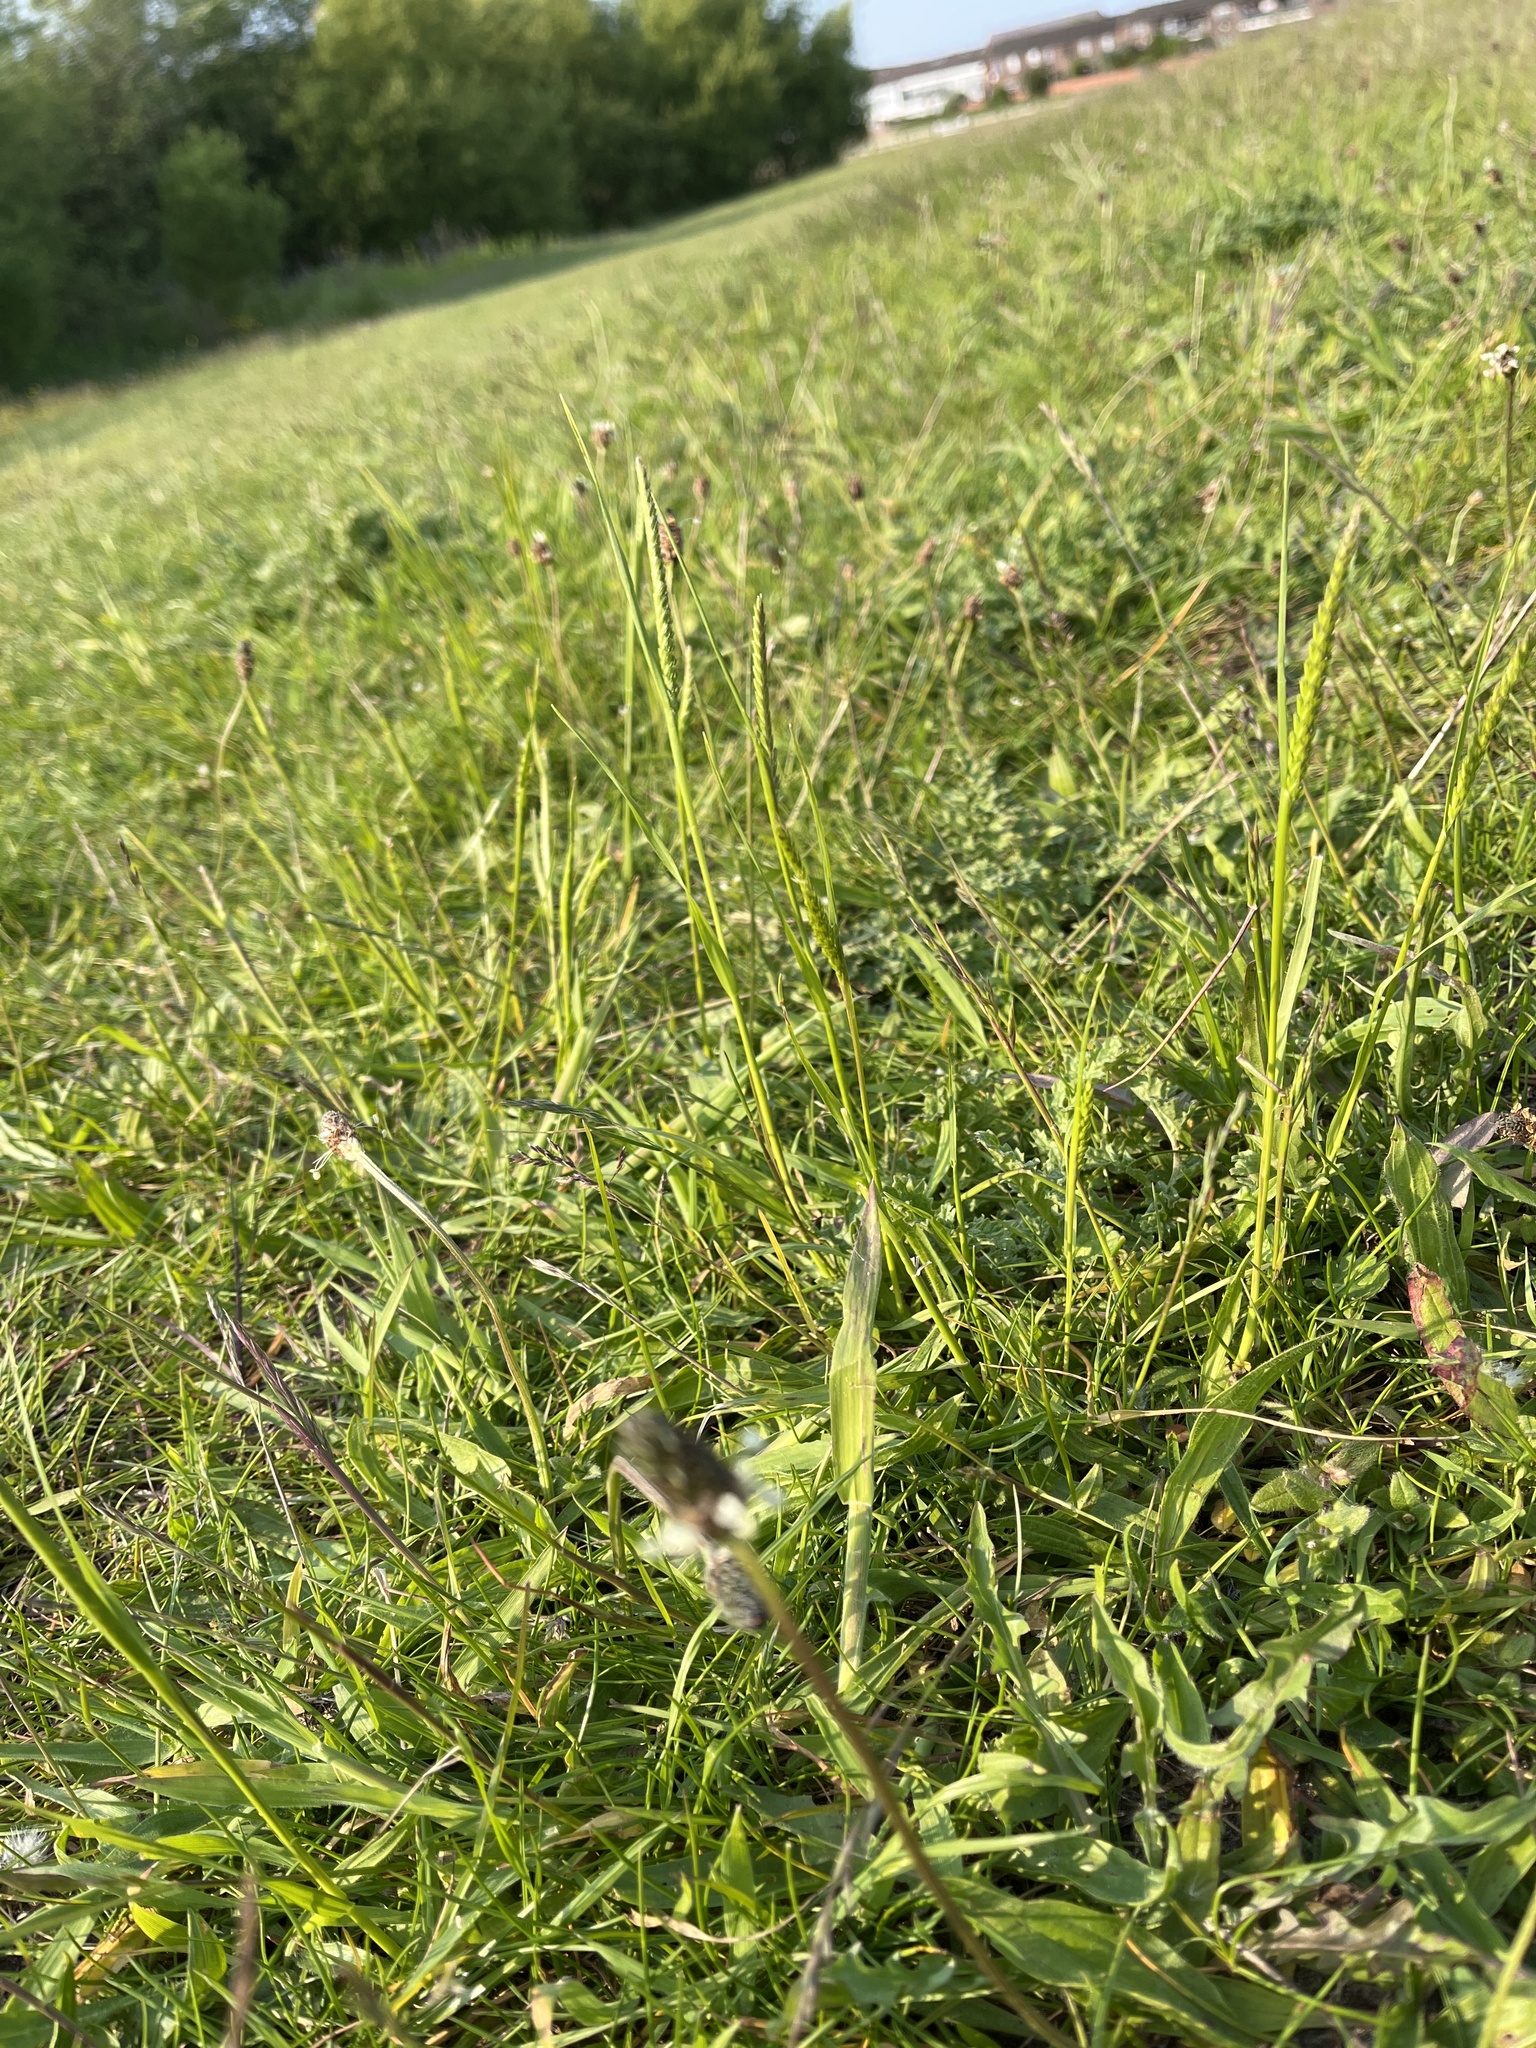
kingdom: Plantae
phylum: Tracheophyta
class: Liliopsida
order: Poales
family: Poaceae
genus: Cynosurus
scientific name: Cynosurus cristatus
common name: Crested dog's-tail
